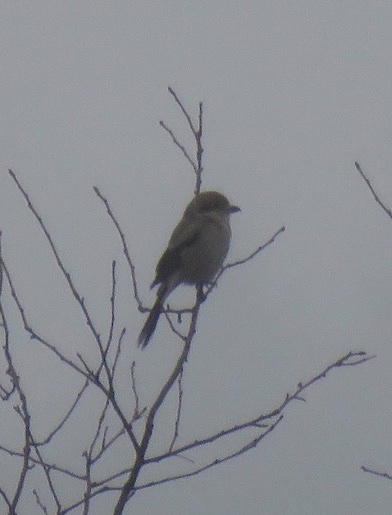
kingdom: Animalia
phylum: Chordata
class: Aves
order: Passeriformes
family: Laniidae
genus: Lanius
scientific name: Lanius borealis
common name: Northern shrike
